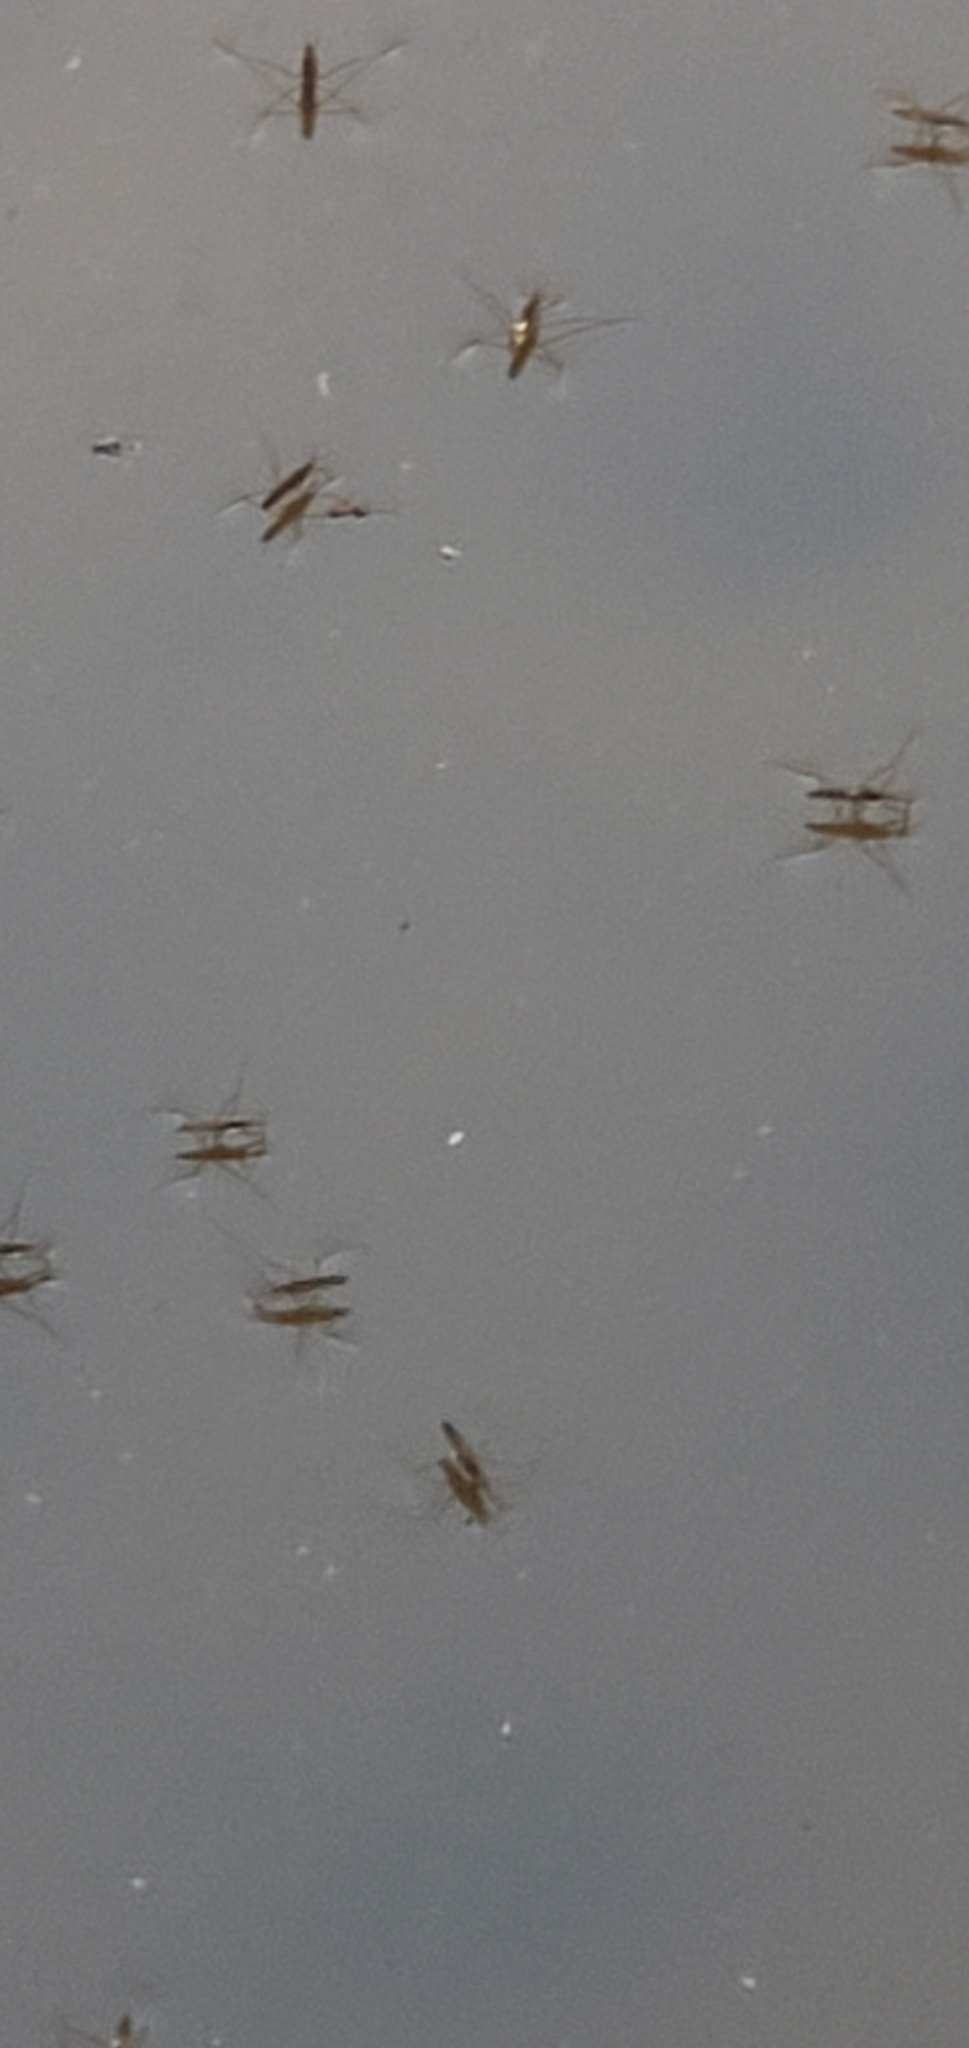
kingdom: Animalia
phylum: Arthropoda
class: Insecta
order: Hemiptera
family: Gerridae
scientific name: Gerridae
